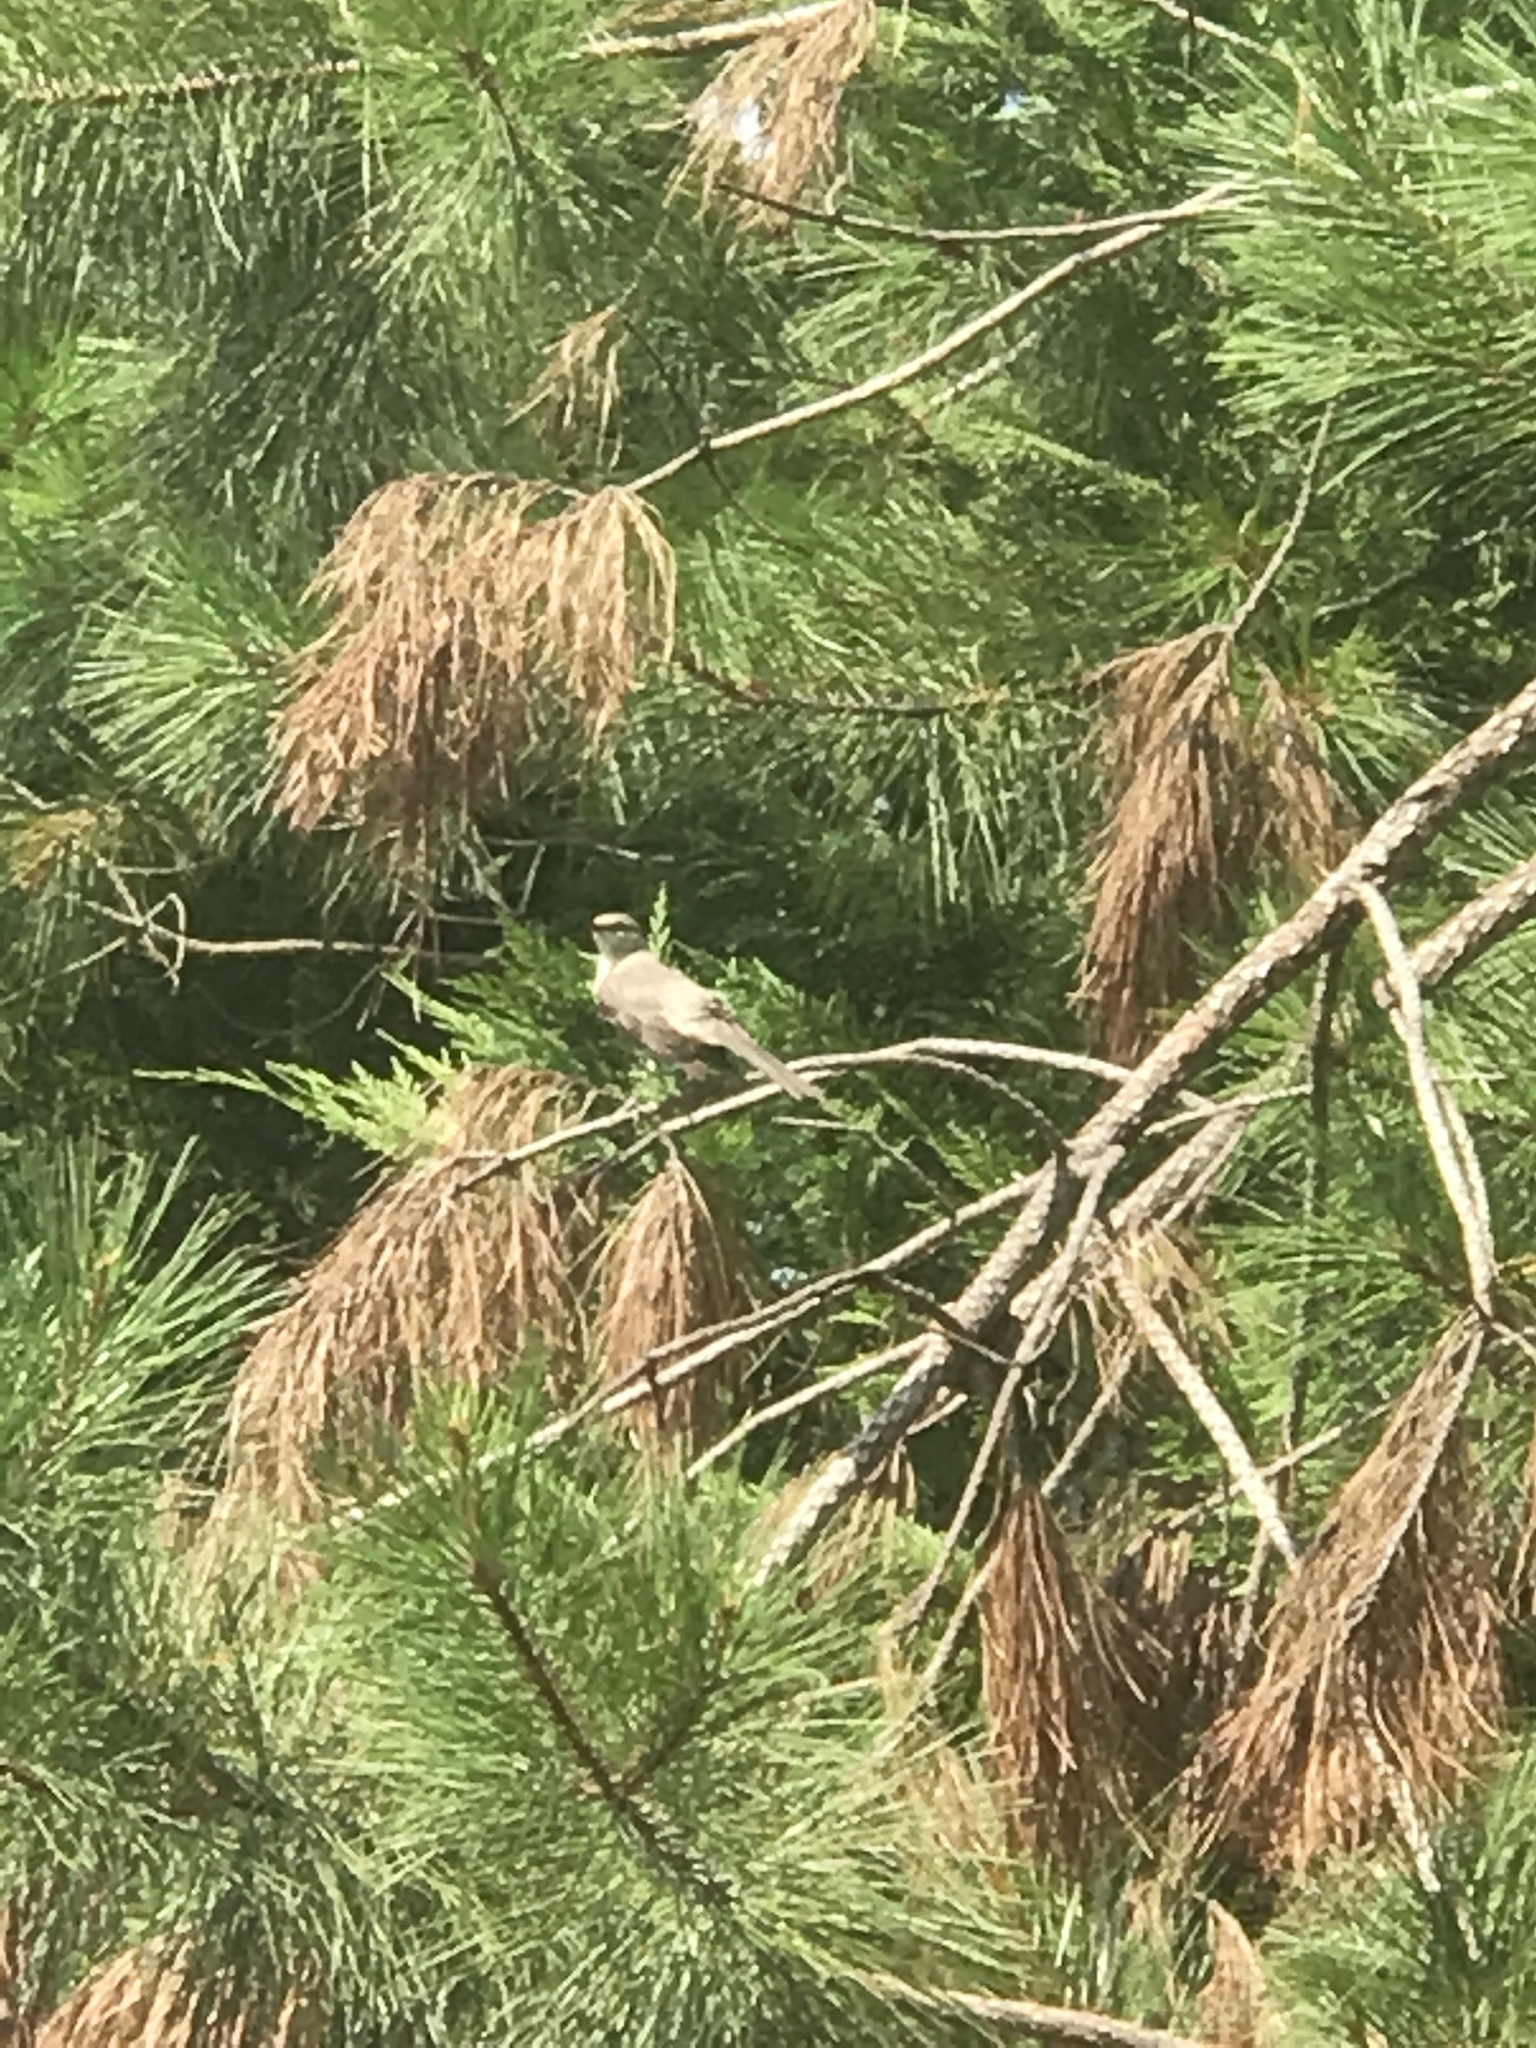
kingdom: Animalia
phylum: Chordata
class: Aves
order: Passeriformes
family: Mimidae
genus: Mimus
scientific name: Mimus polyglottos
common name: Northern mockingbird
